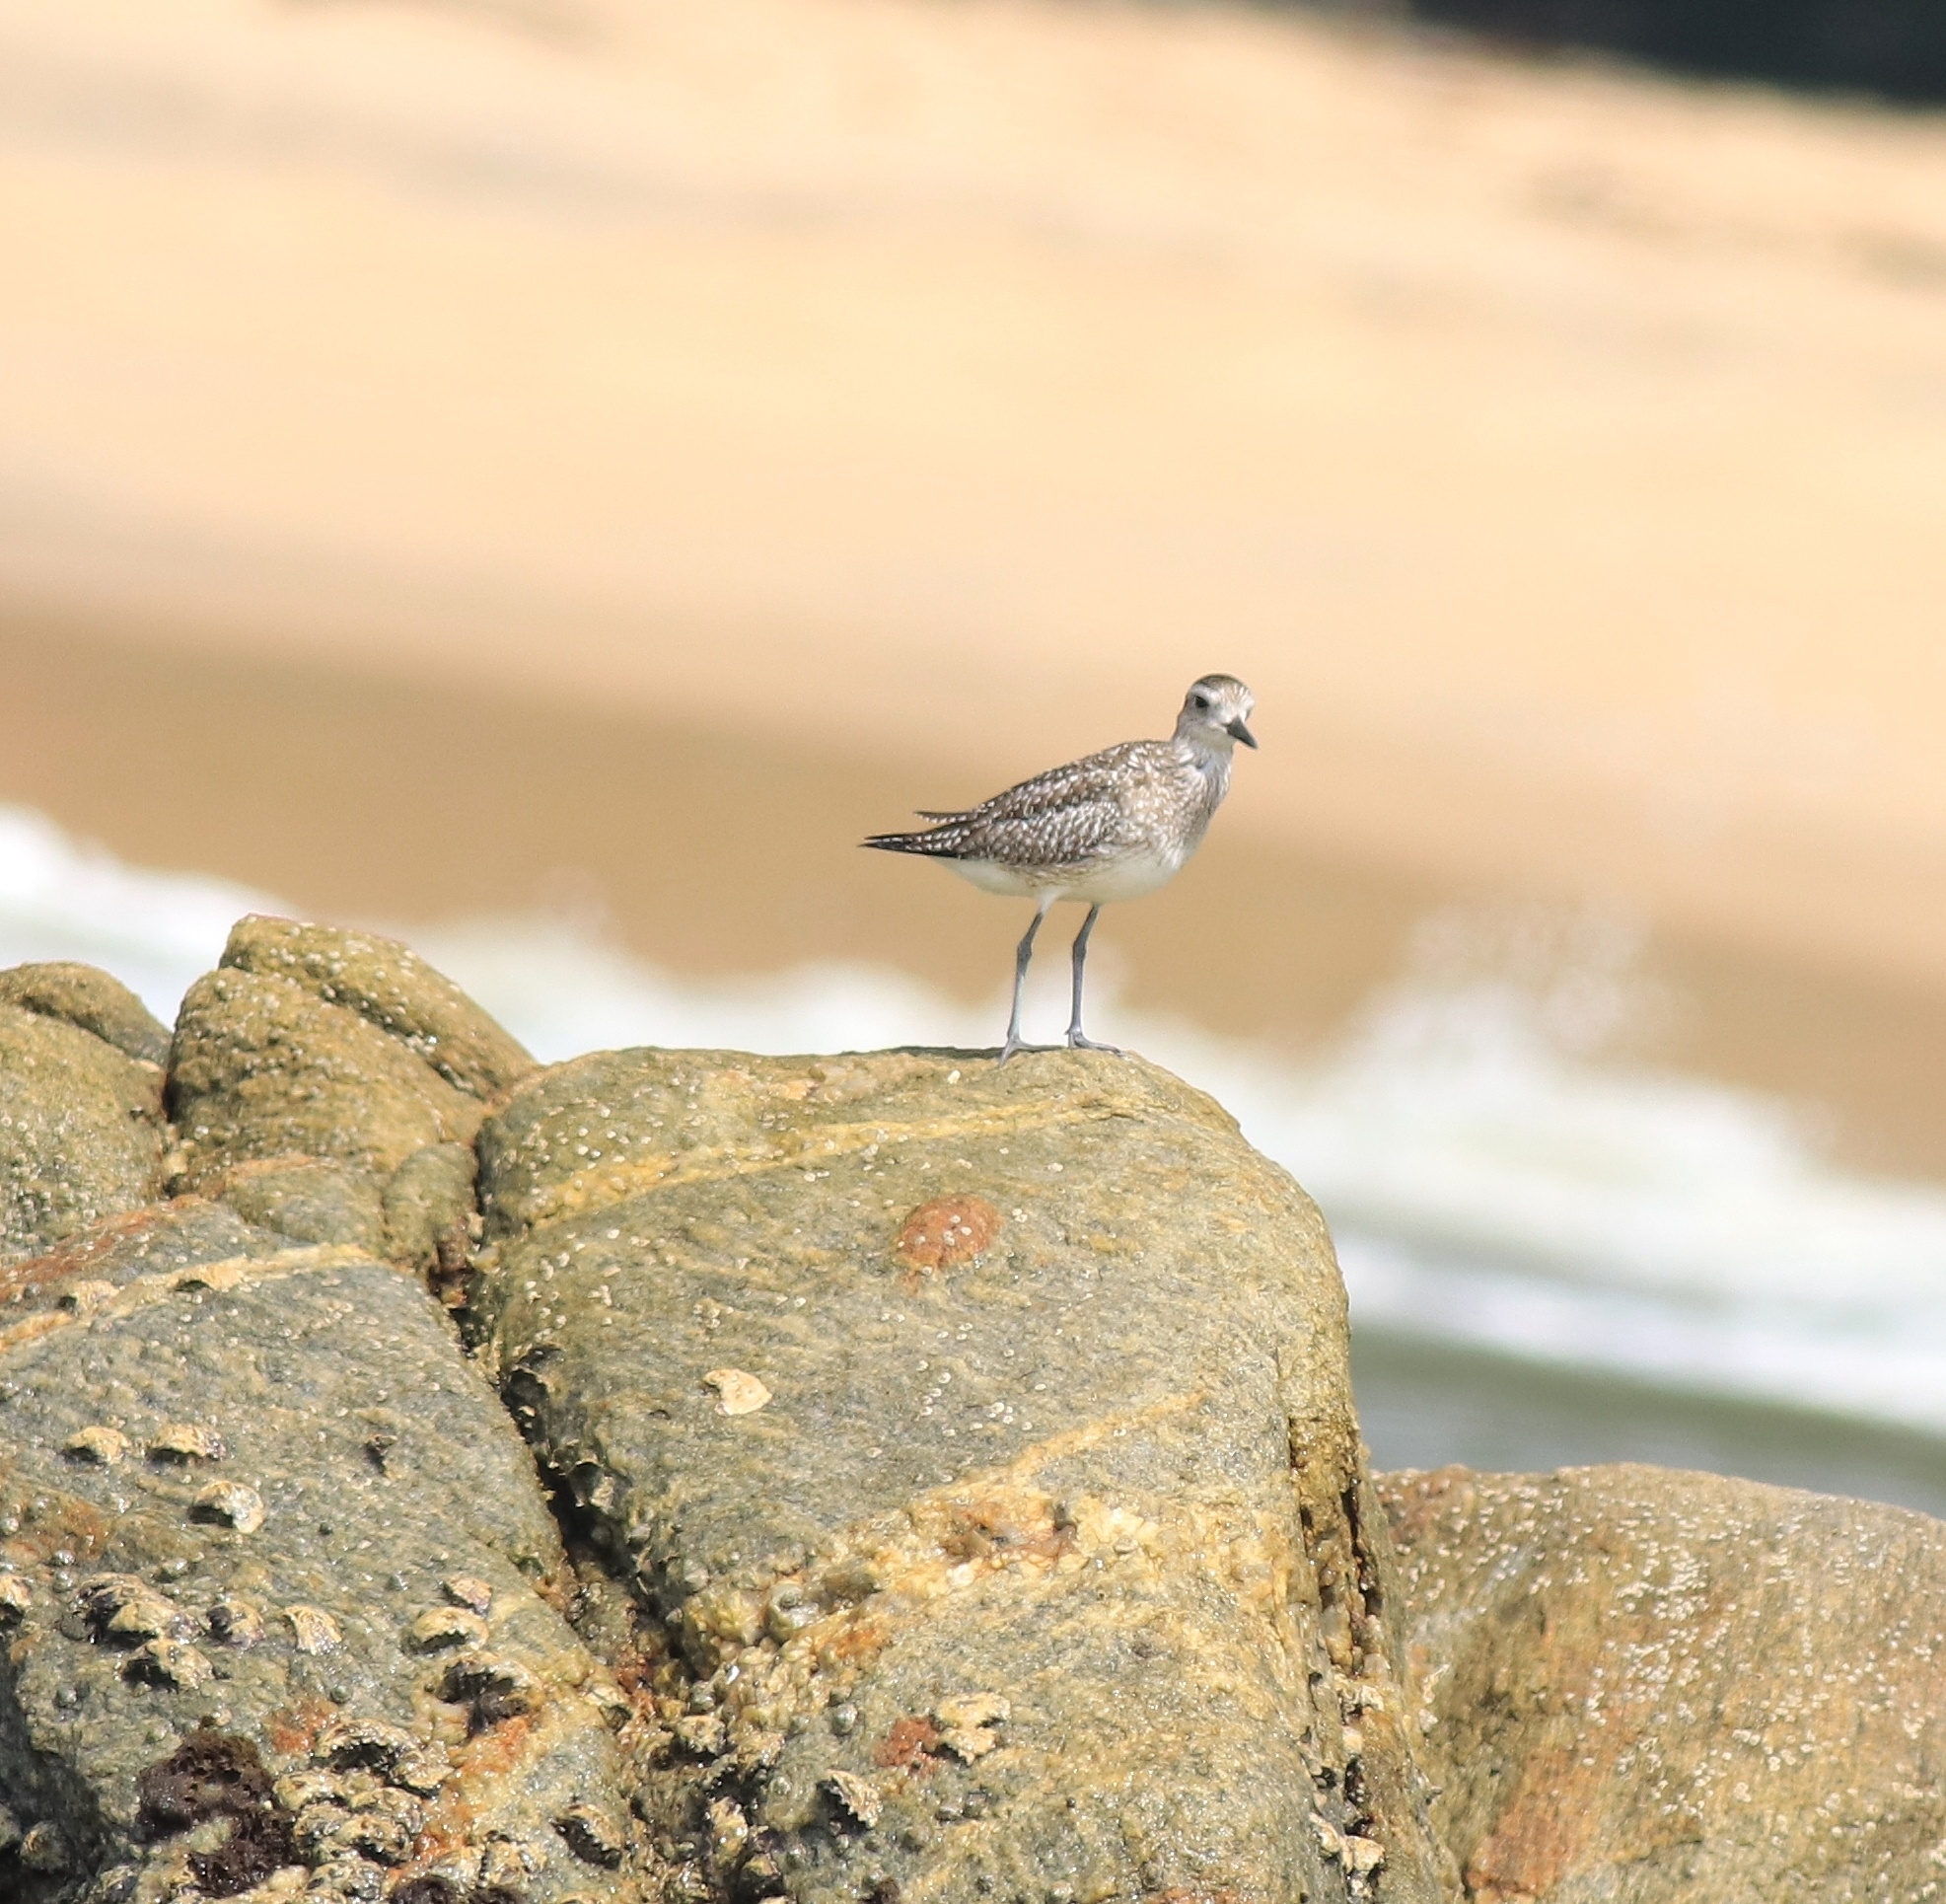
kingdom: Animalia
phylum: Chordata
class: Aves
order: Charadriiformes
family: Charadriidae
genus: Pluvialis
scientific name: Pluvialis squatarola
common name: Grey plover
